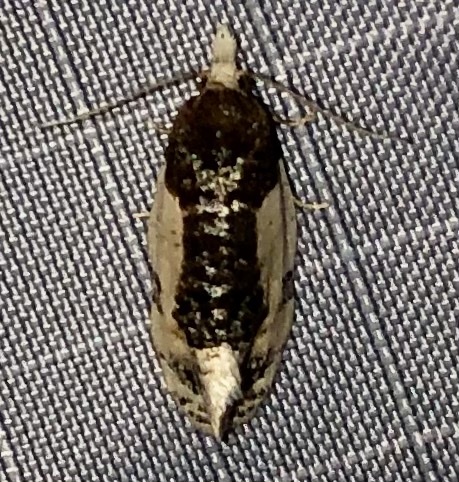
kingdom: Animalia
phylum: Arthropoda
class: Insecta
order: Lepidoptera
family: Tortricidae
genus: Henricus
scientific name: Henricus edwardsiana
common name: Contrasting henricus moth
